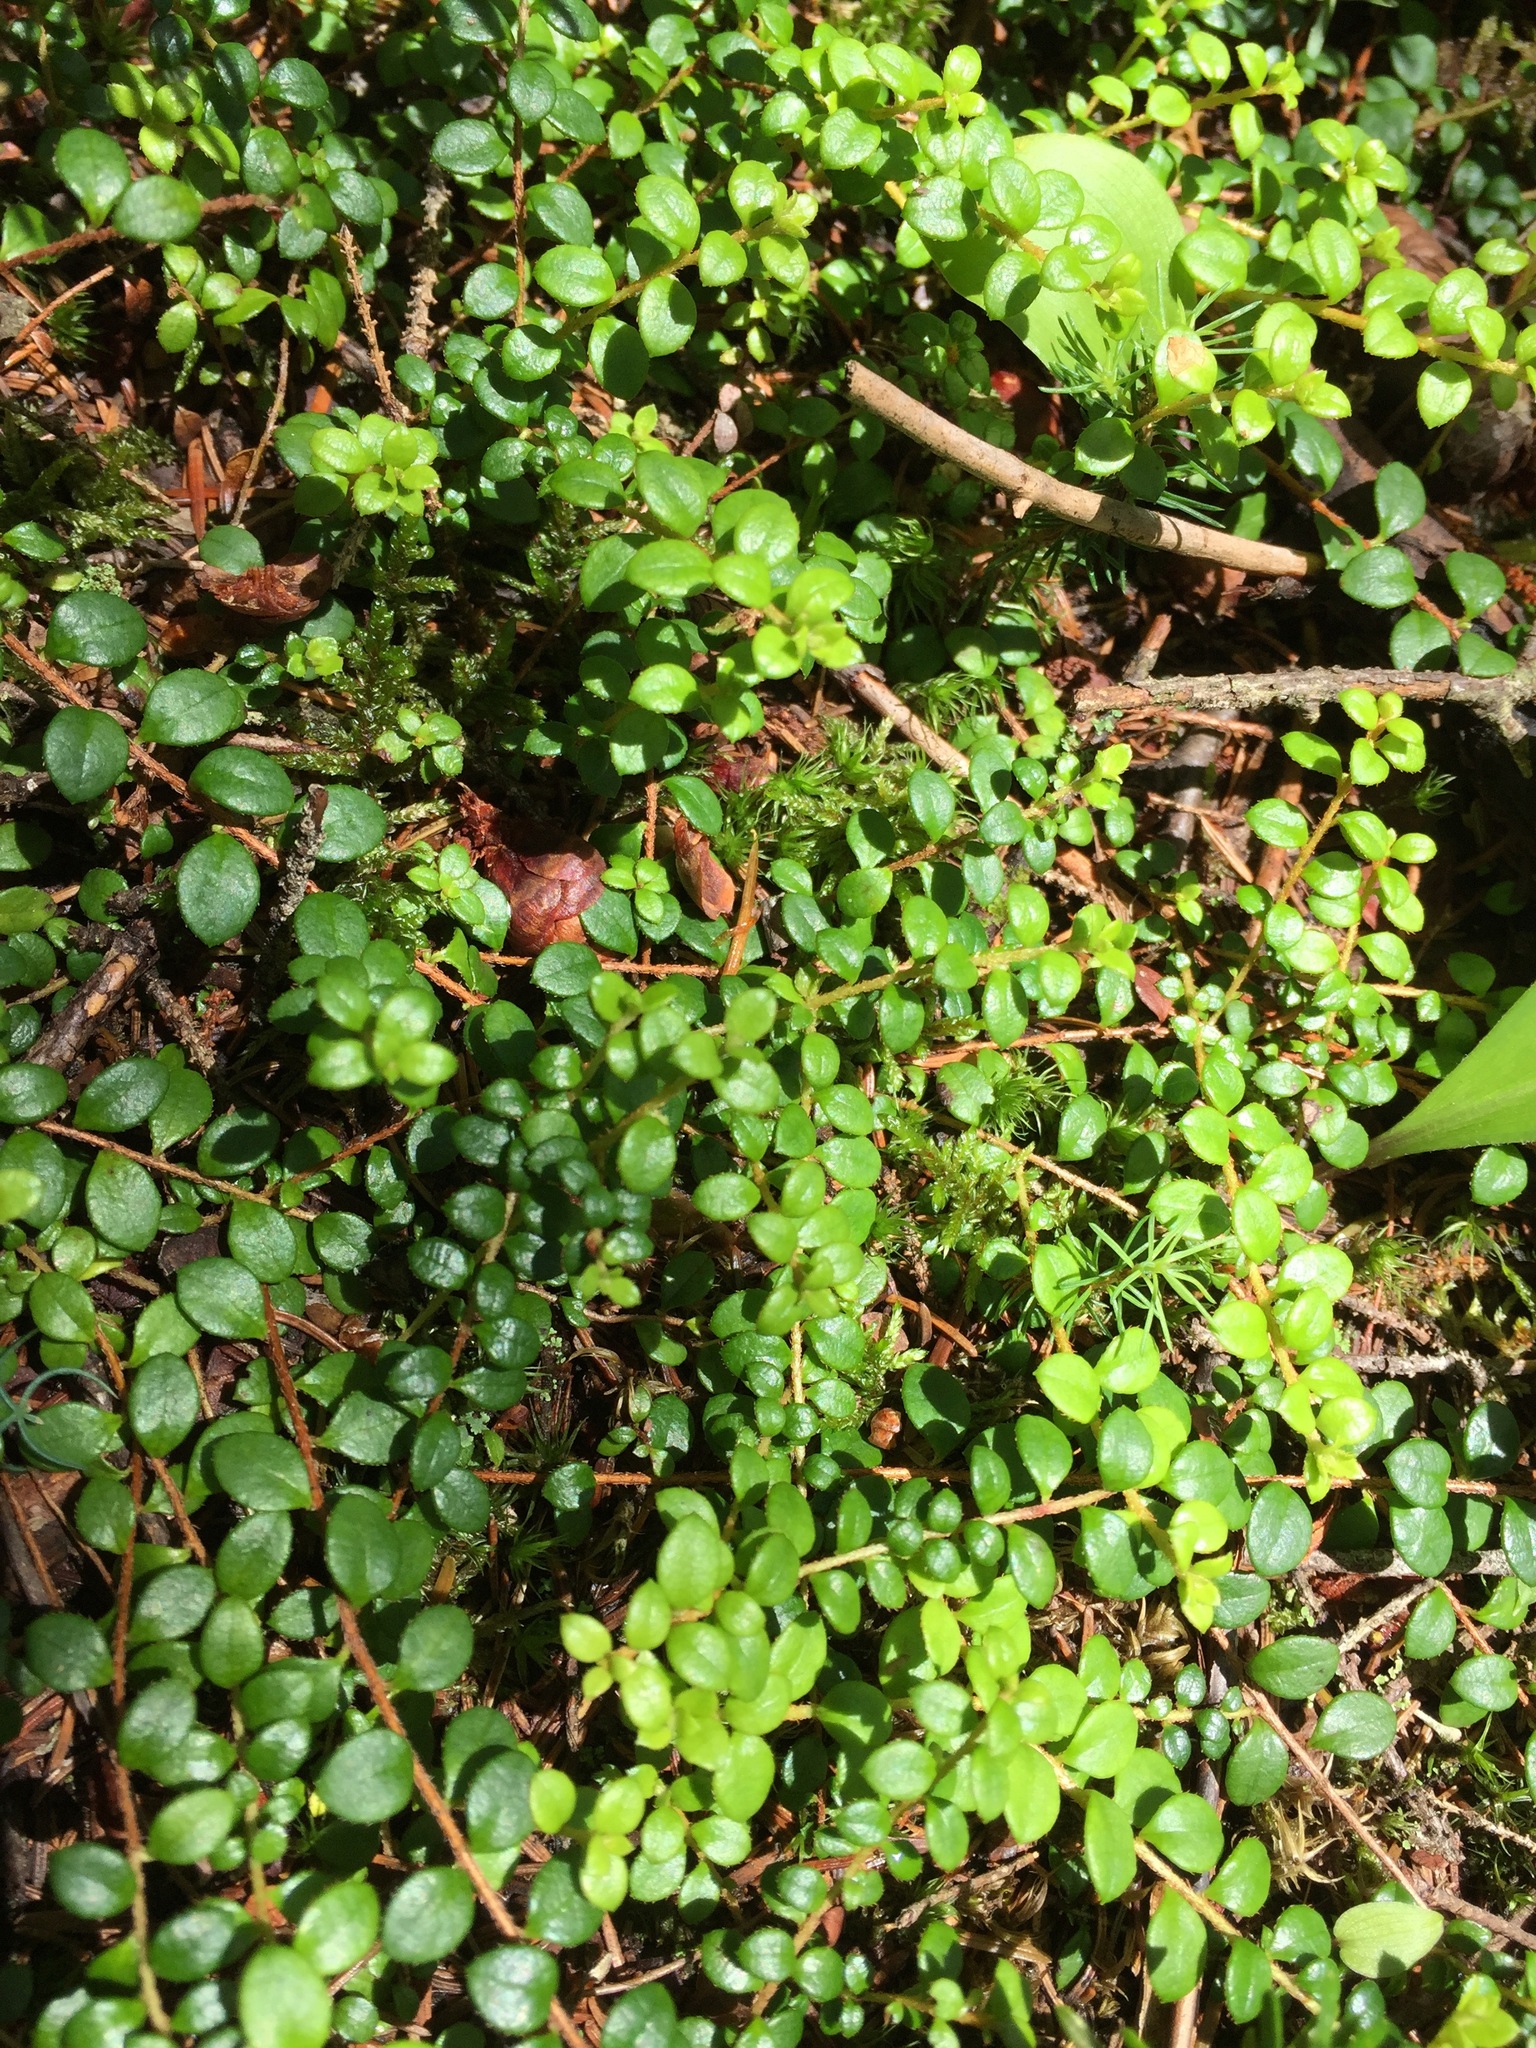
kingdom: Plantae
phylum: Tracheophyta
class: Magnoliopsida
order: Ericales
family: Ericaceae
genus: Gaultheria
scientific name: Gaultheria hispidula
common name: Cancer wintergreen
